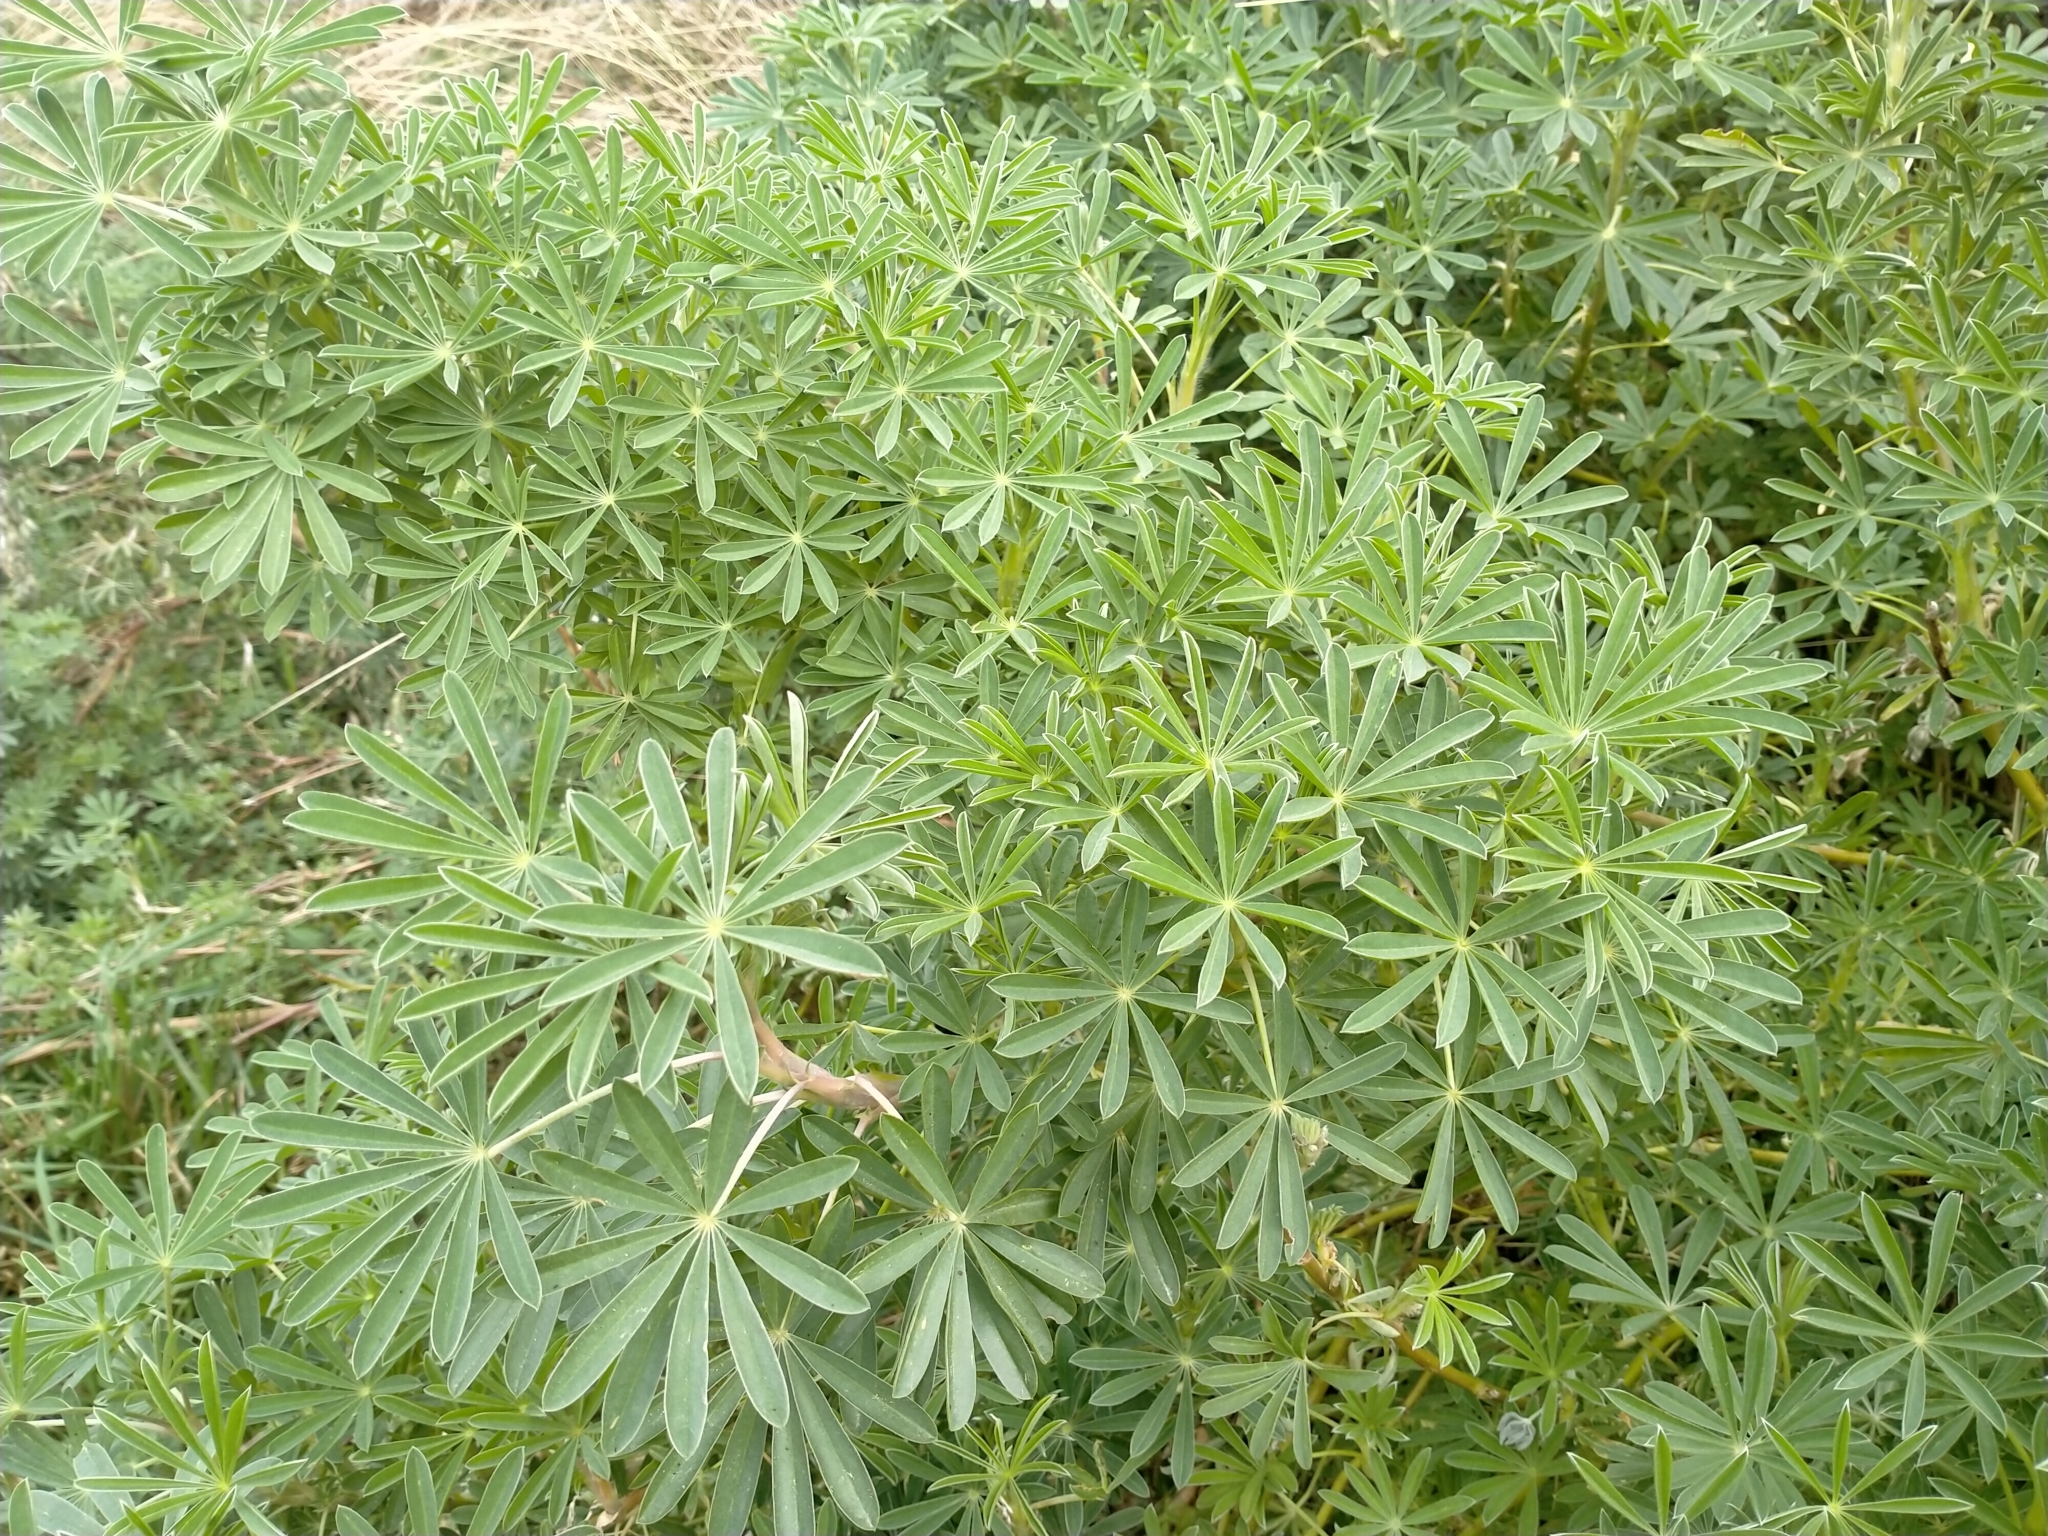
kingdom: Plantae
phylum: Tracheophyta
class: Magnoliopsida
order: Fabales
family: Fabaceae
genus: Lupinus
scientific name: Lupinus arboreus
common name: Yellow bush lupine
